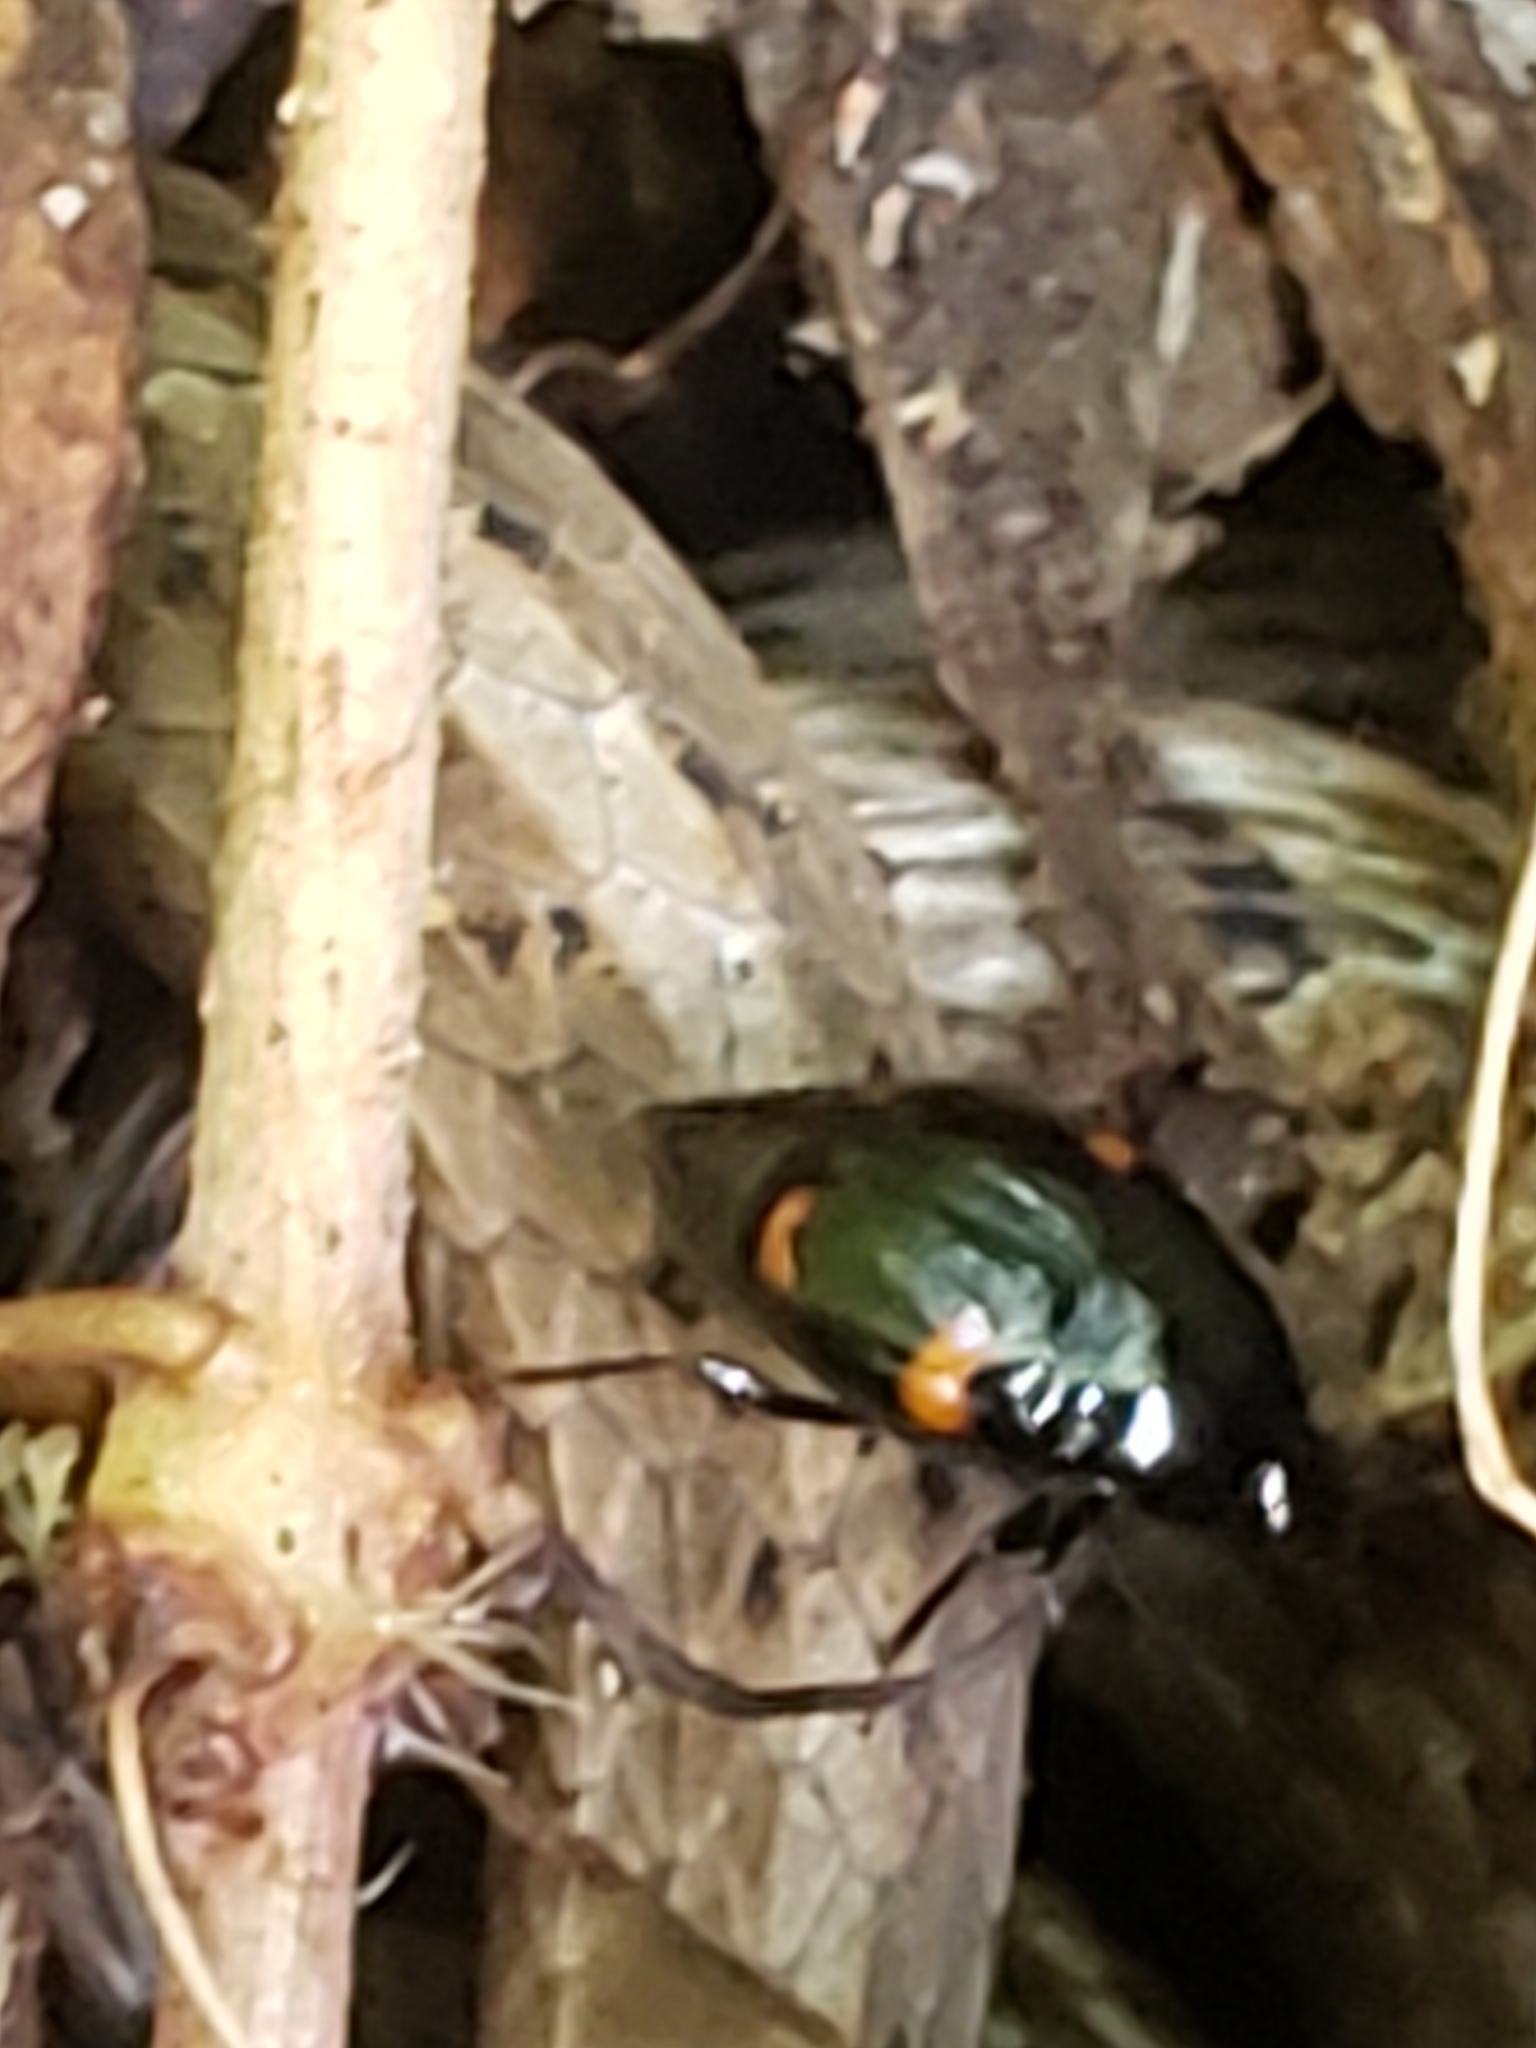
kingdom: Animalia
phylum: Arthropoda
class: Insecta
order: Coleoptera
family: Staphylinidae
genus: Scaphidium
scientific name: Scaphidium quadriguttatum
